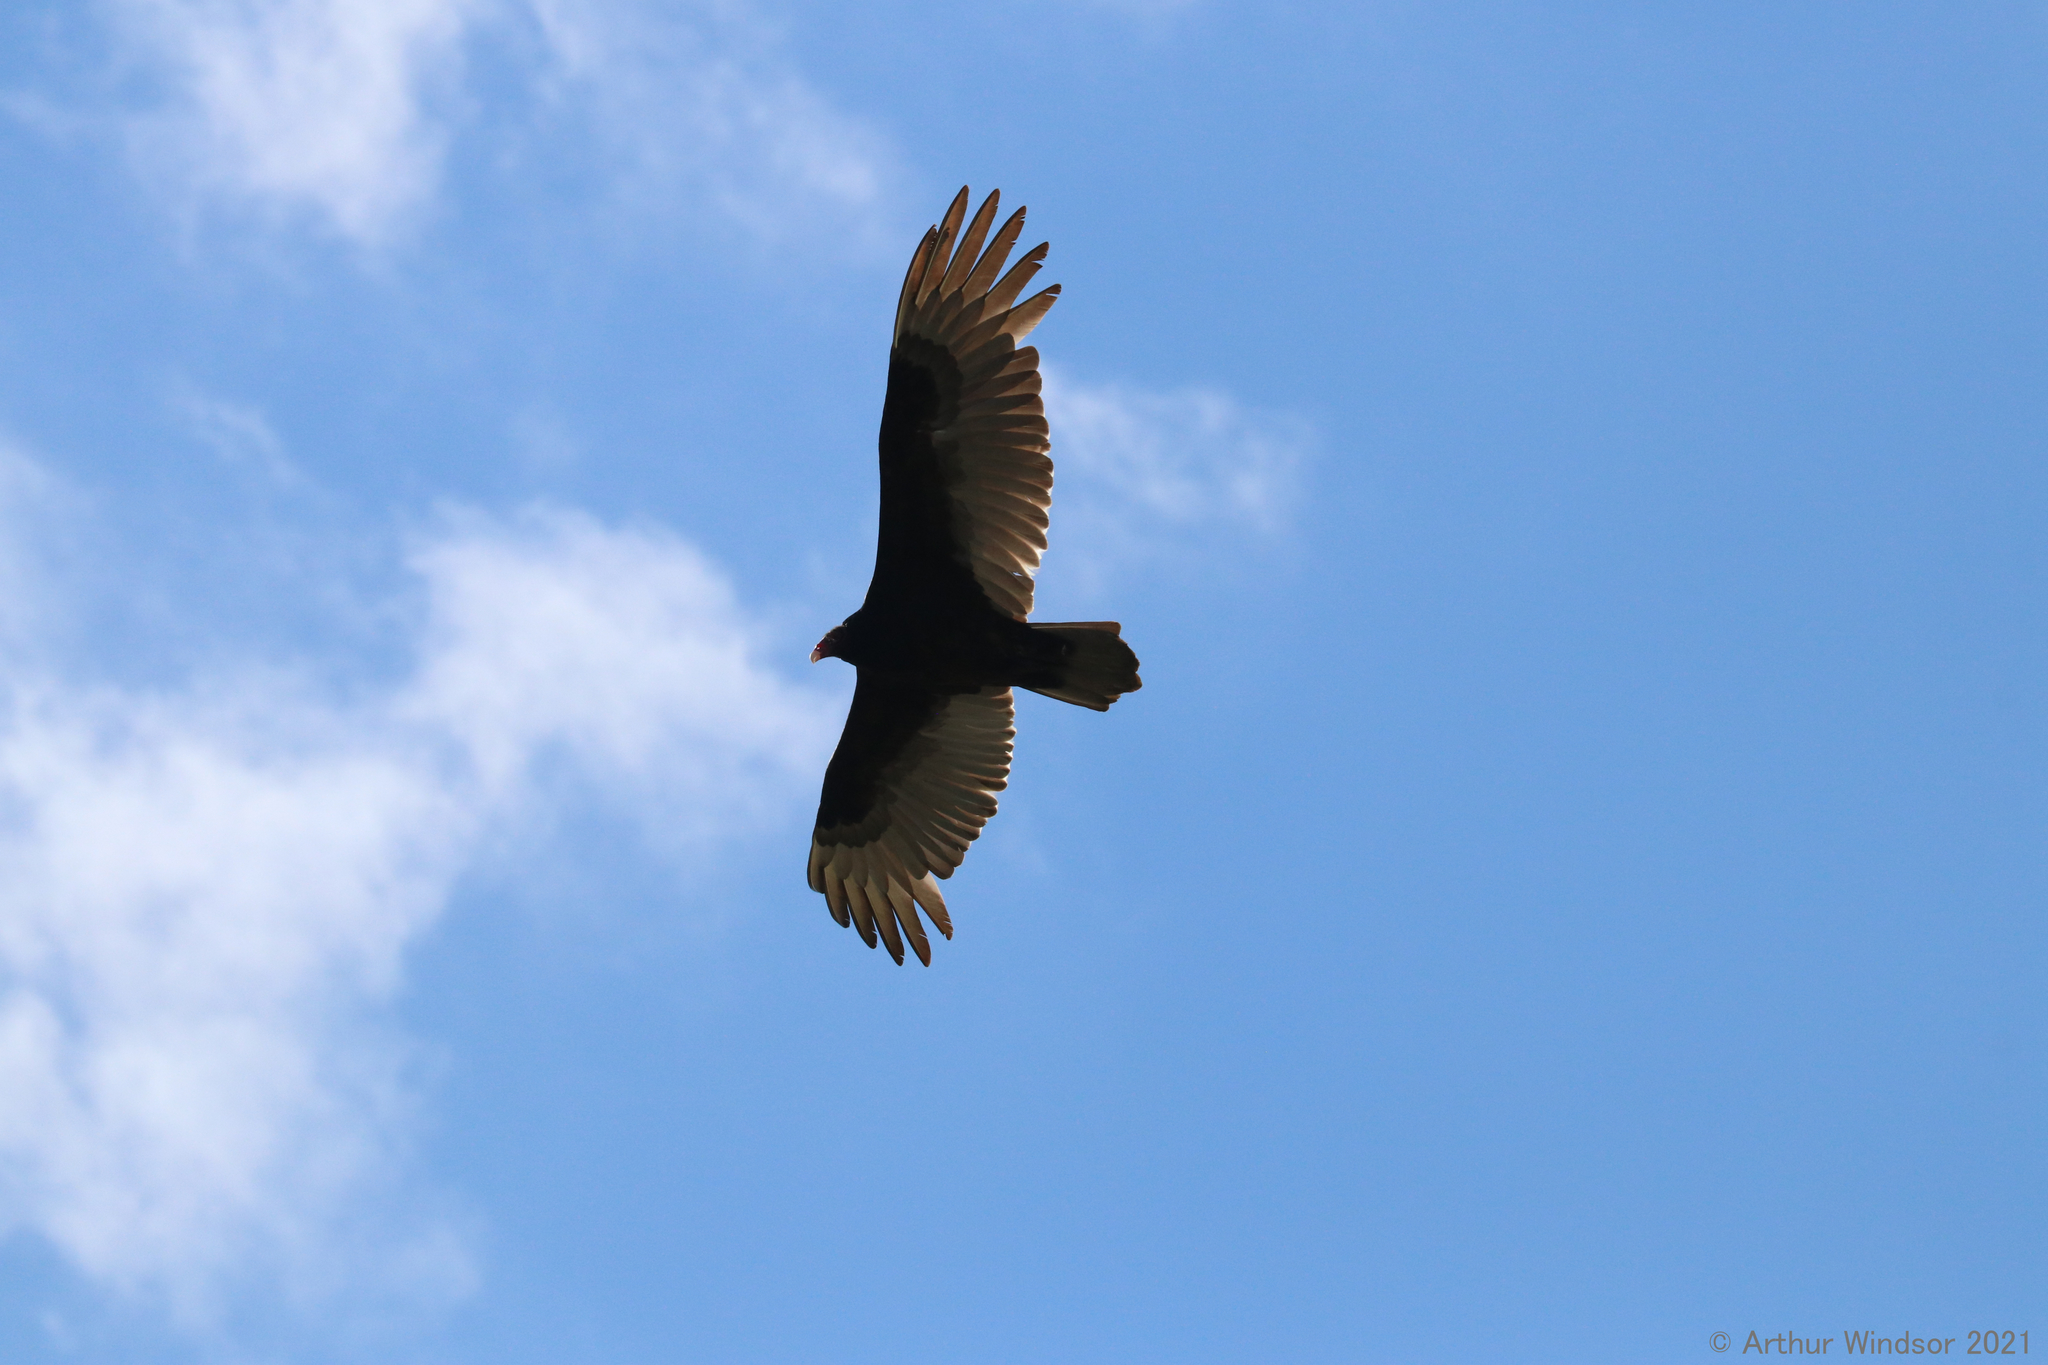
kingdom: Animalia
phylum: Chordata
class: Aves
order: Accipitriformes
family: Cathartidae
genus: Cathartes
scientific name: Cathartes aura
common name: Turkey vulture
